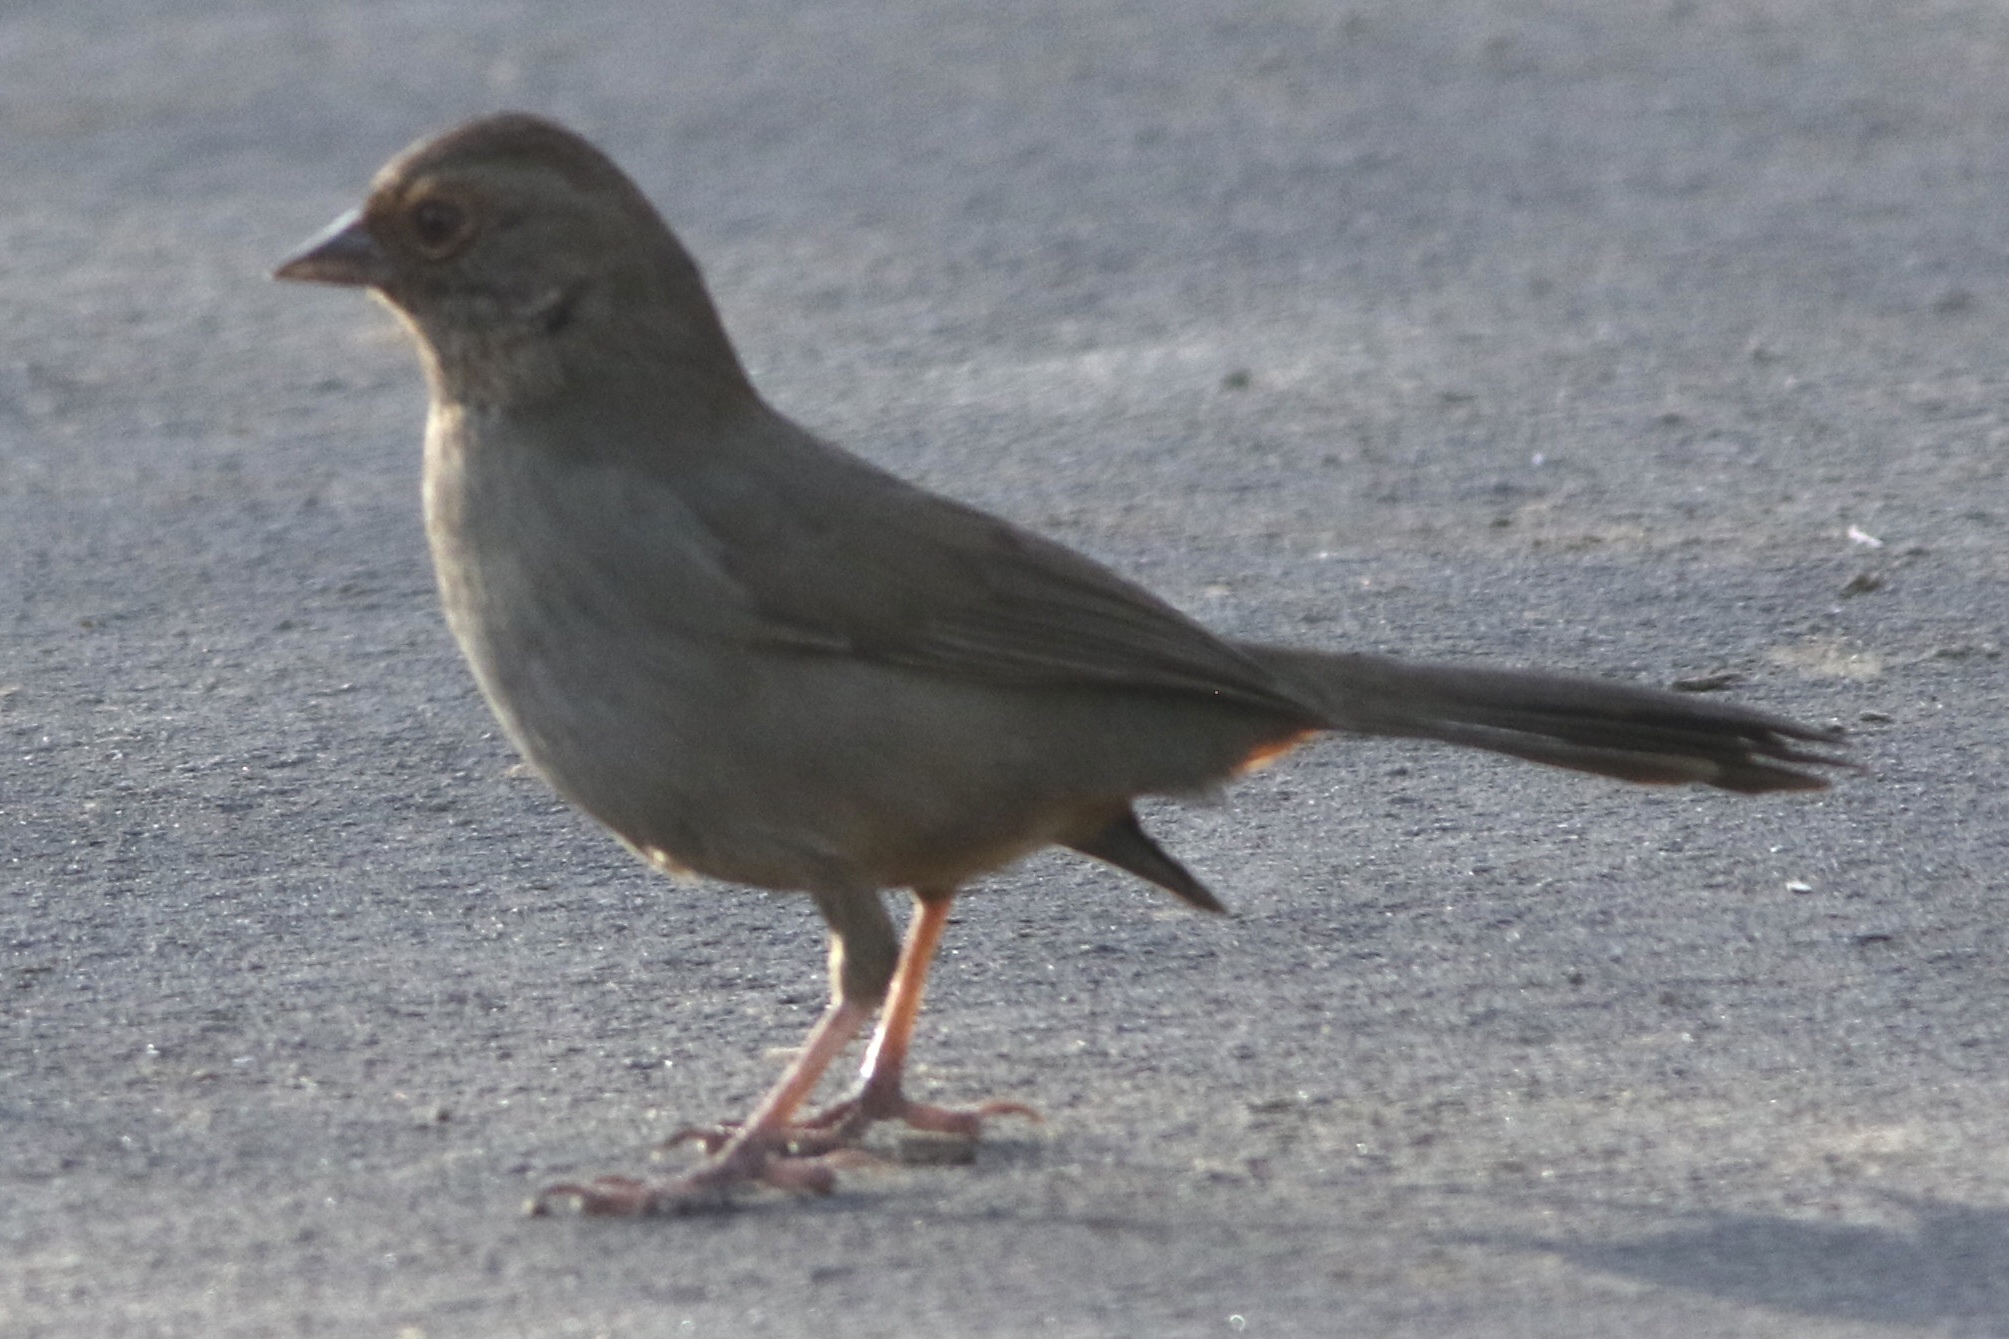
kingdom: Animalia
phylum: Chordata
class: Aves
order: Passeriformes
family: Passerellidae
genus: Melozone
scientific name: Melozone crissalis
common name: California towhee
